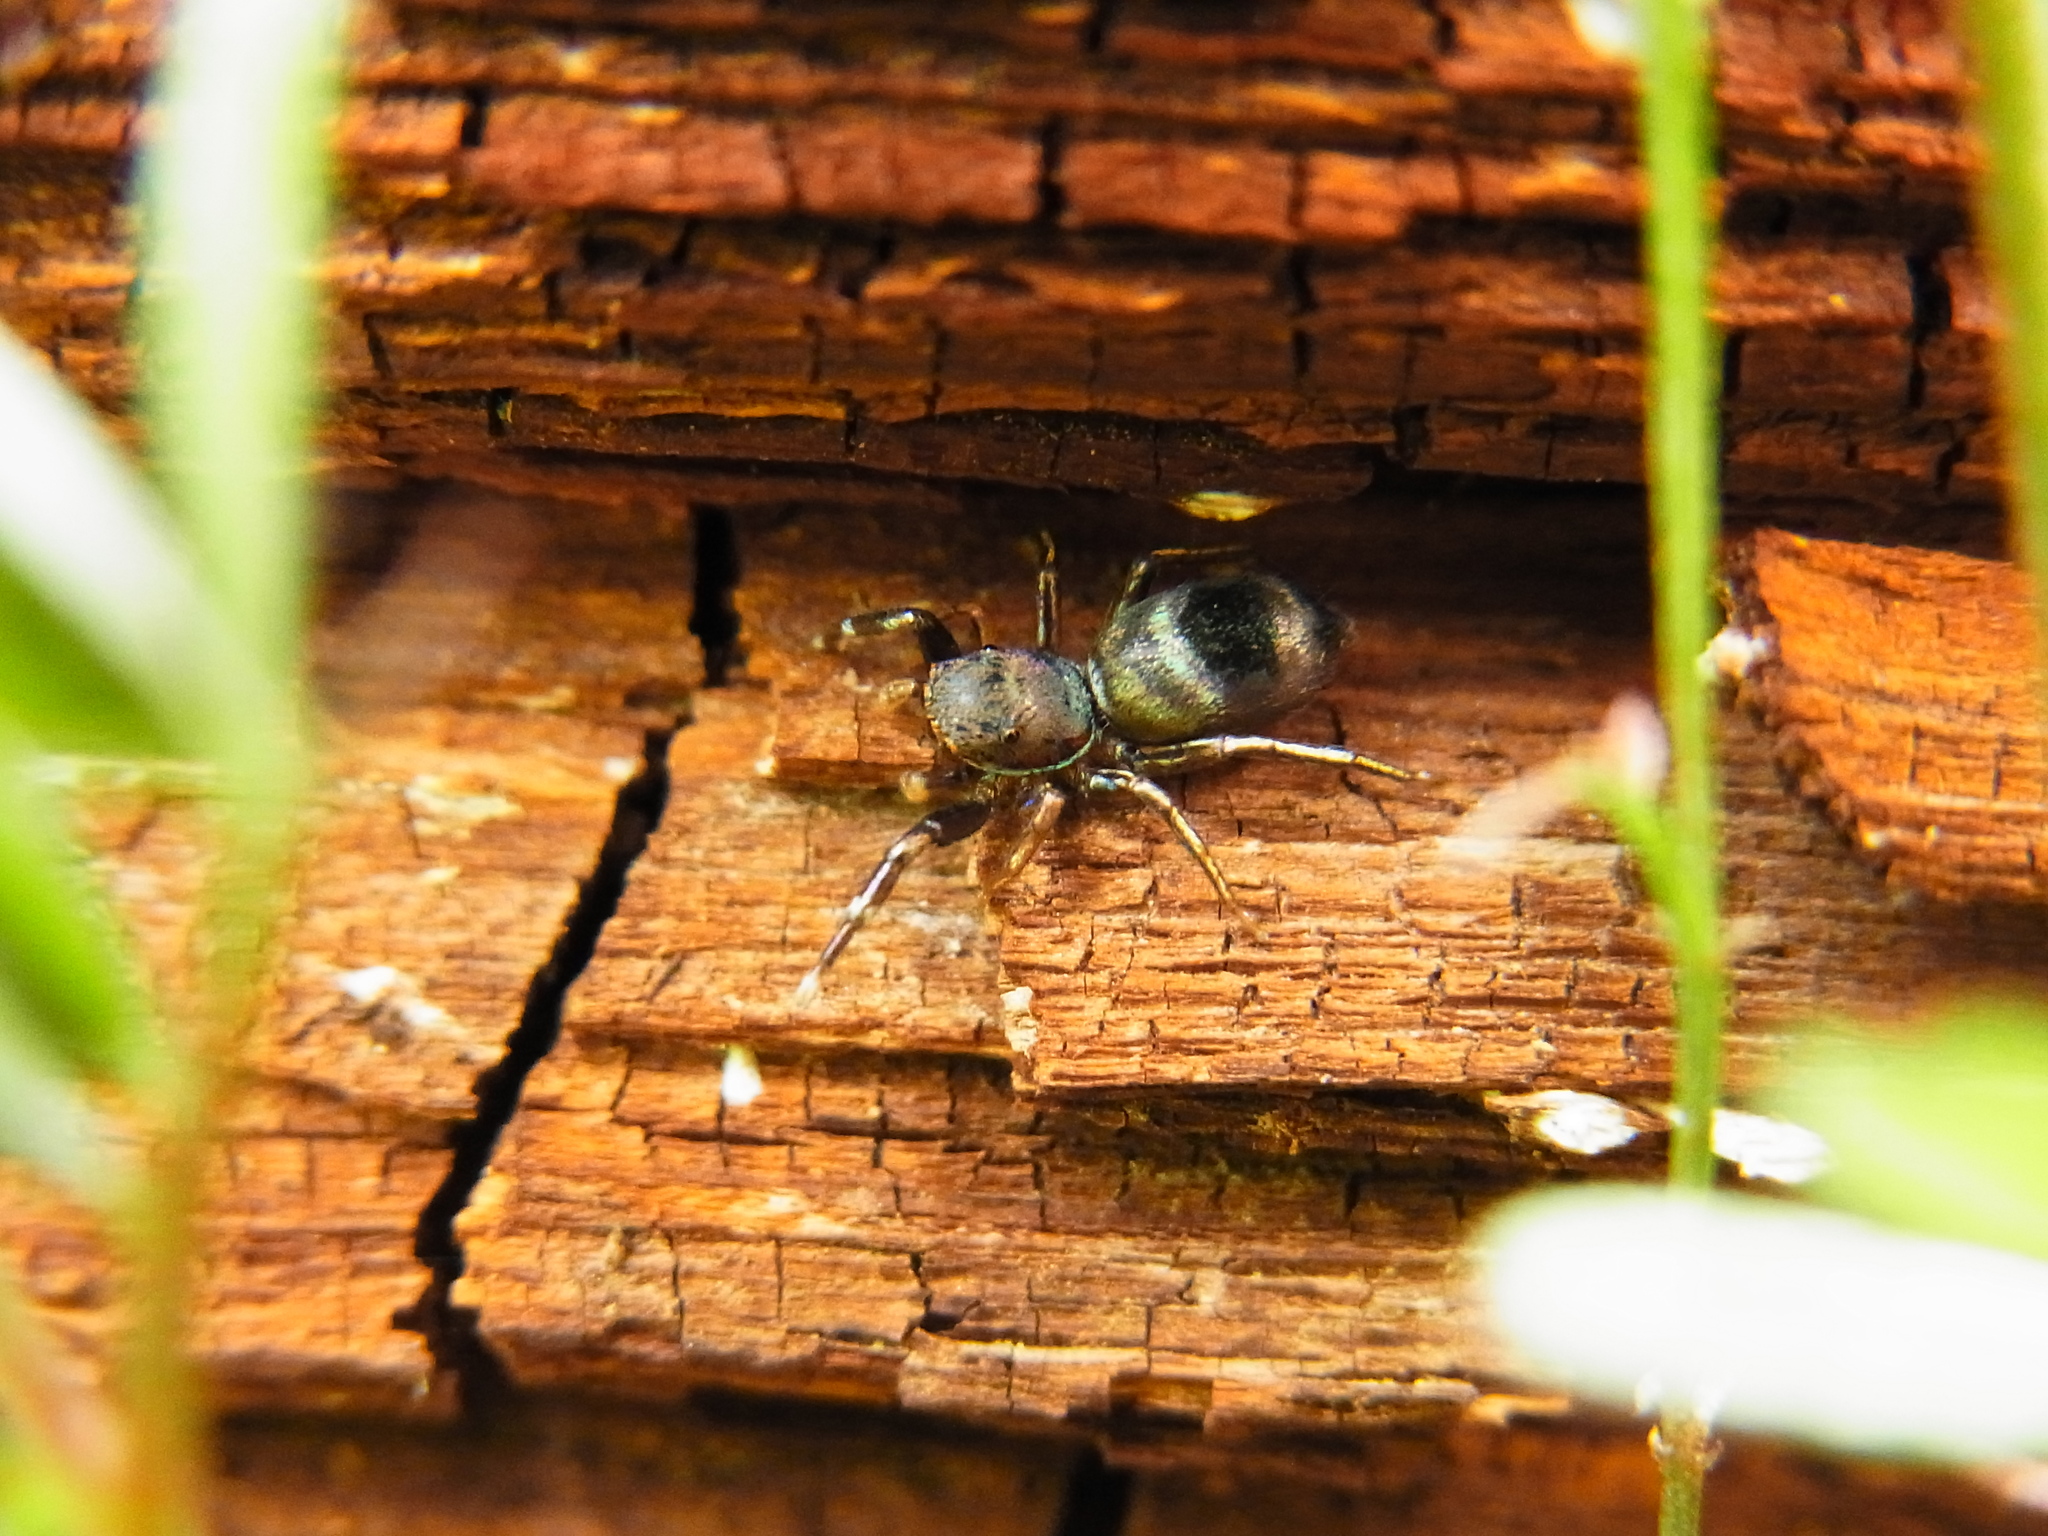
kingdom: Animalia
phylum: Arthropoda
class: Arachnida
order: Araneae
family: Salticidae
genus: Siler
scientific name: Siler cupreus
